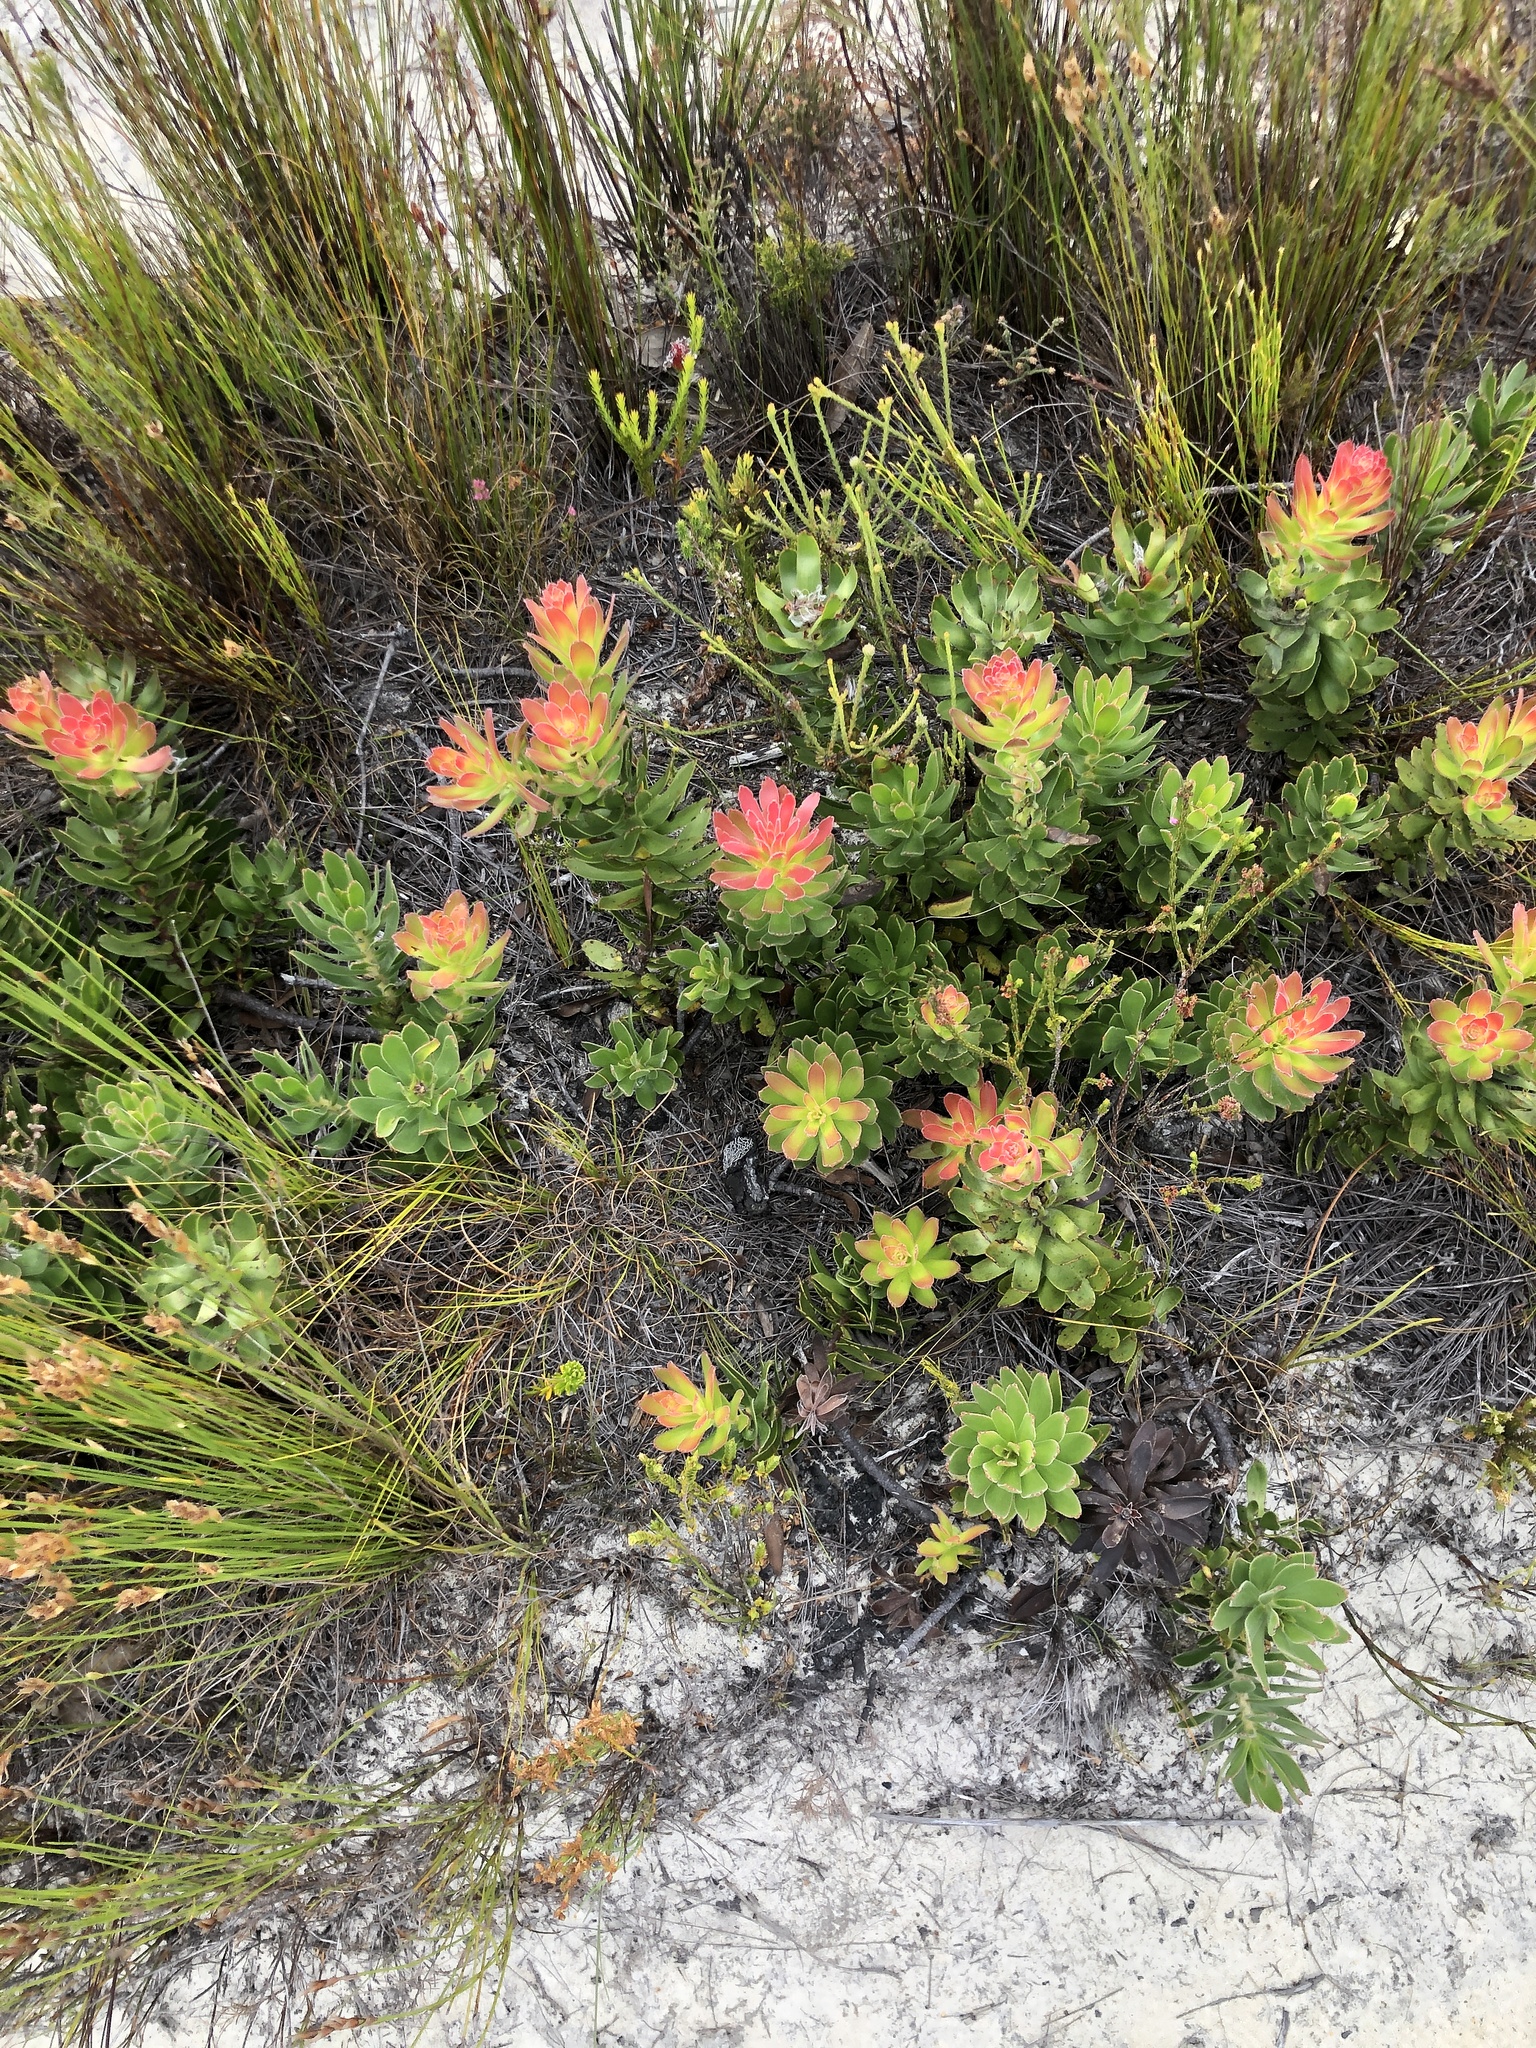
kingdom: Plantae
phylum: Tracheophyta
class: Magnoliopsida
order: Proteales
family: Proteaceae
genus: Mimetes
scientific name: Mimetes cucullatus
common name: Common pagoda
